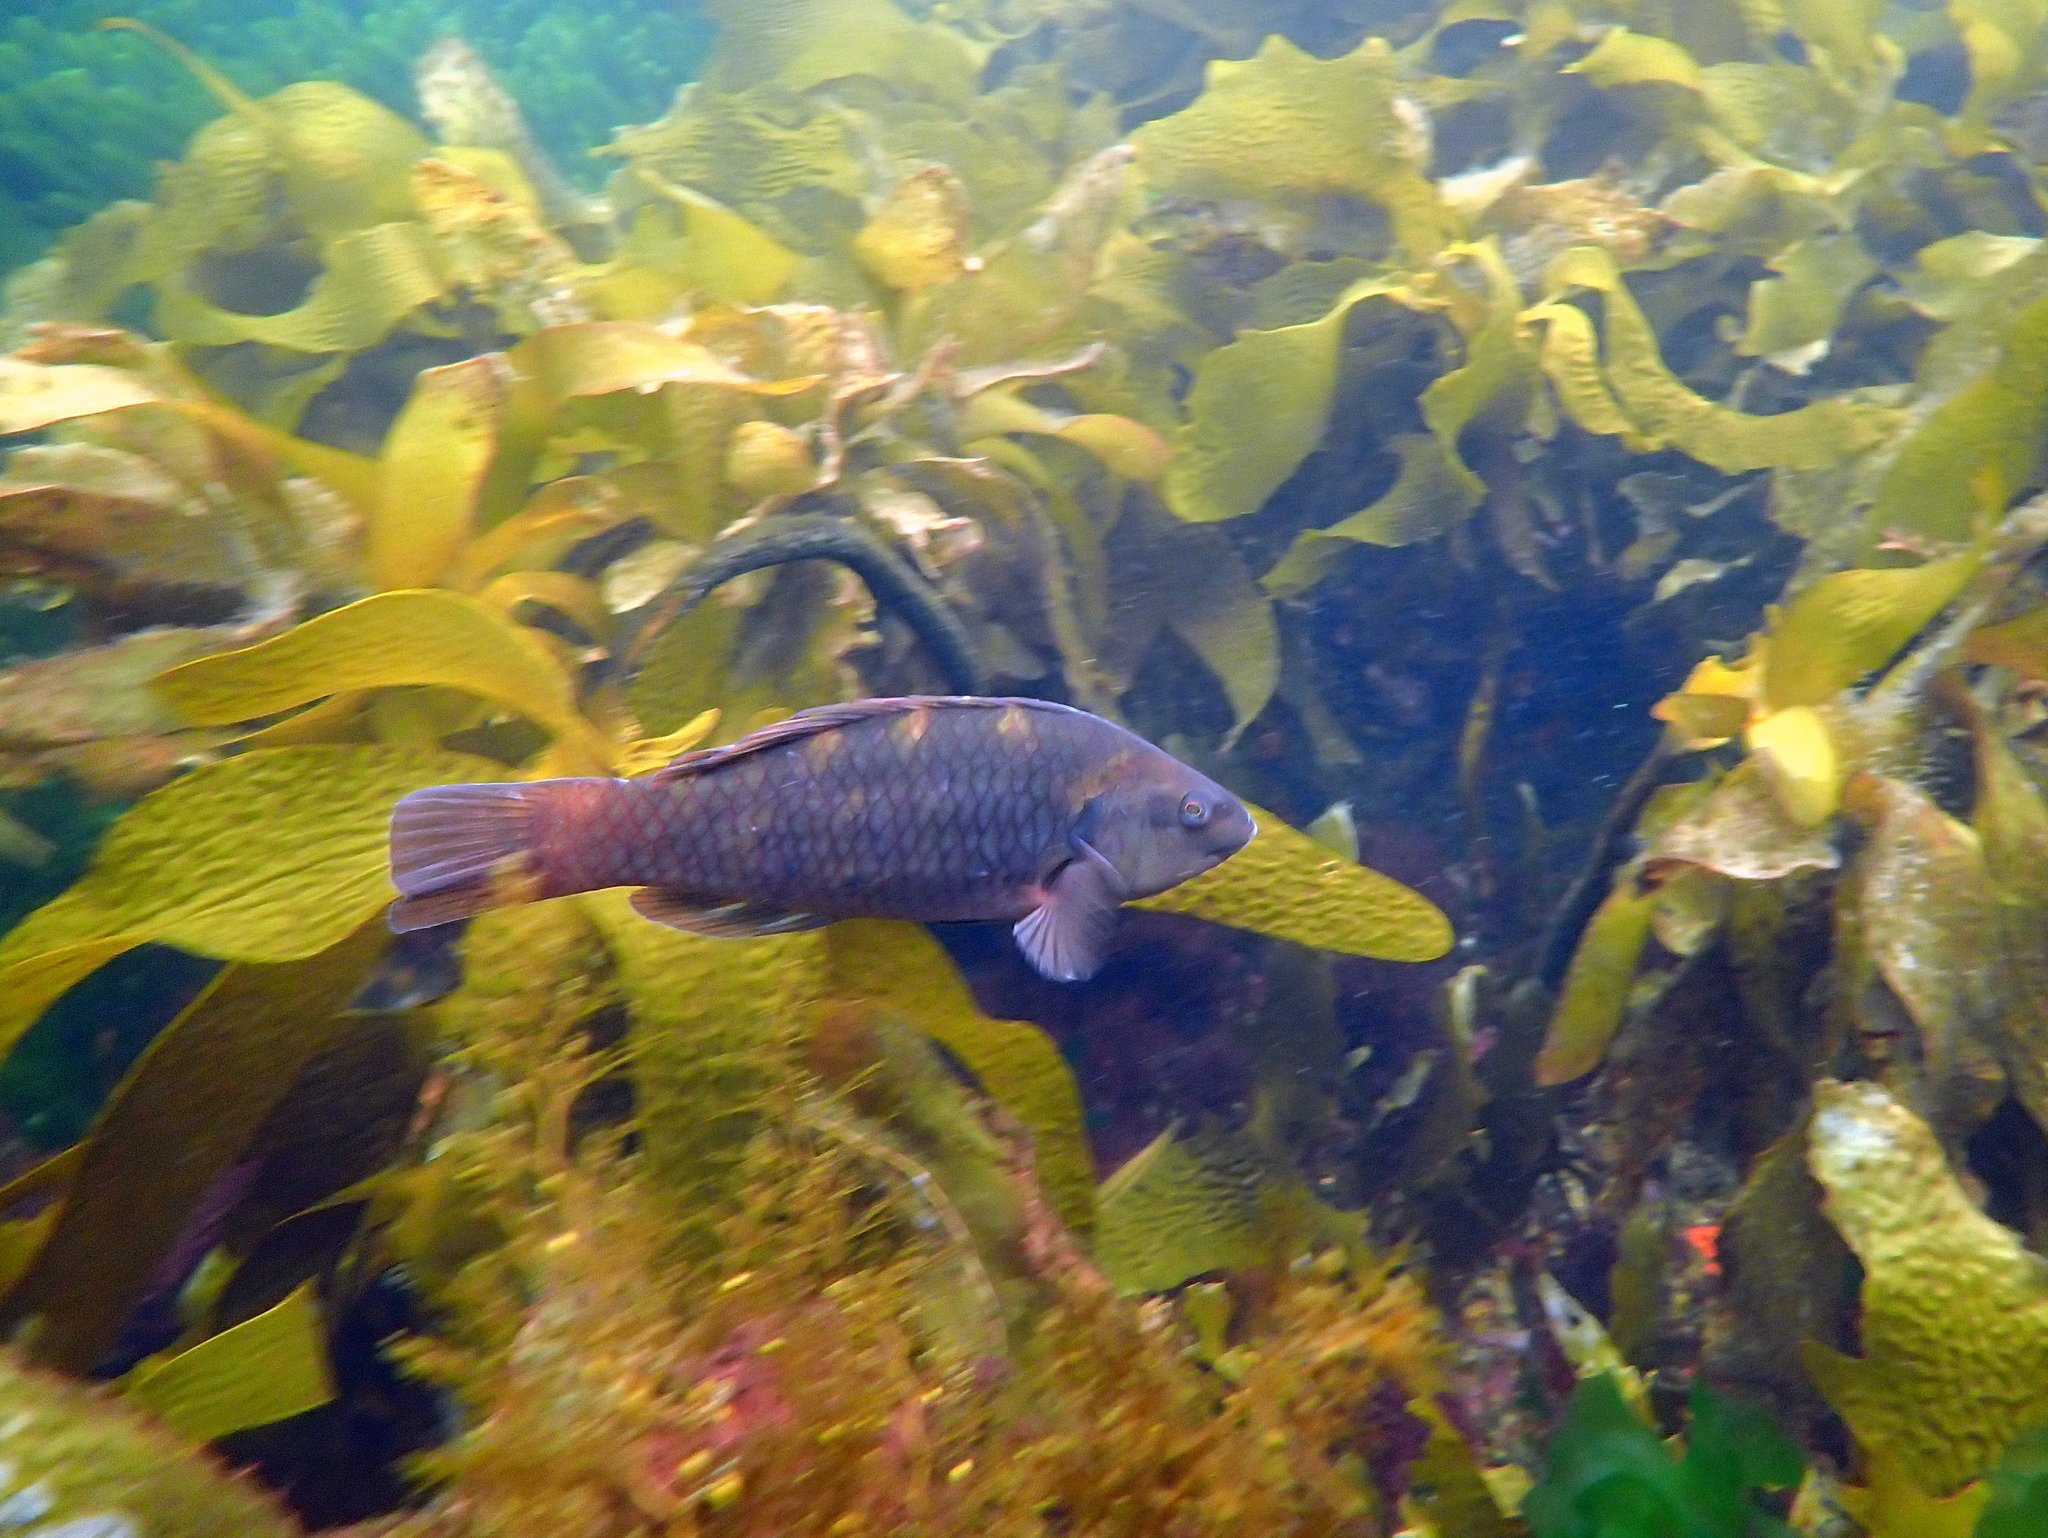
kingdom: Animalia
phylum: Chordata
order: Perciformes
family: Labridae
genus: Notolabrus
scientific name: Notolabrus fucicola
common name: Banded parrotfish
